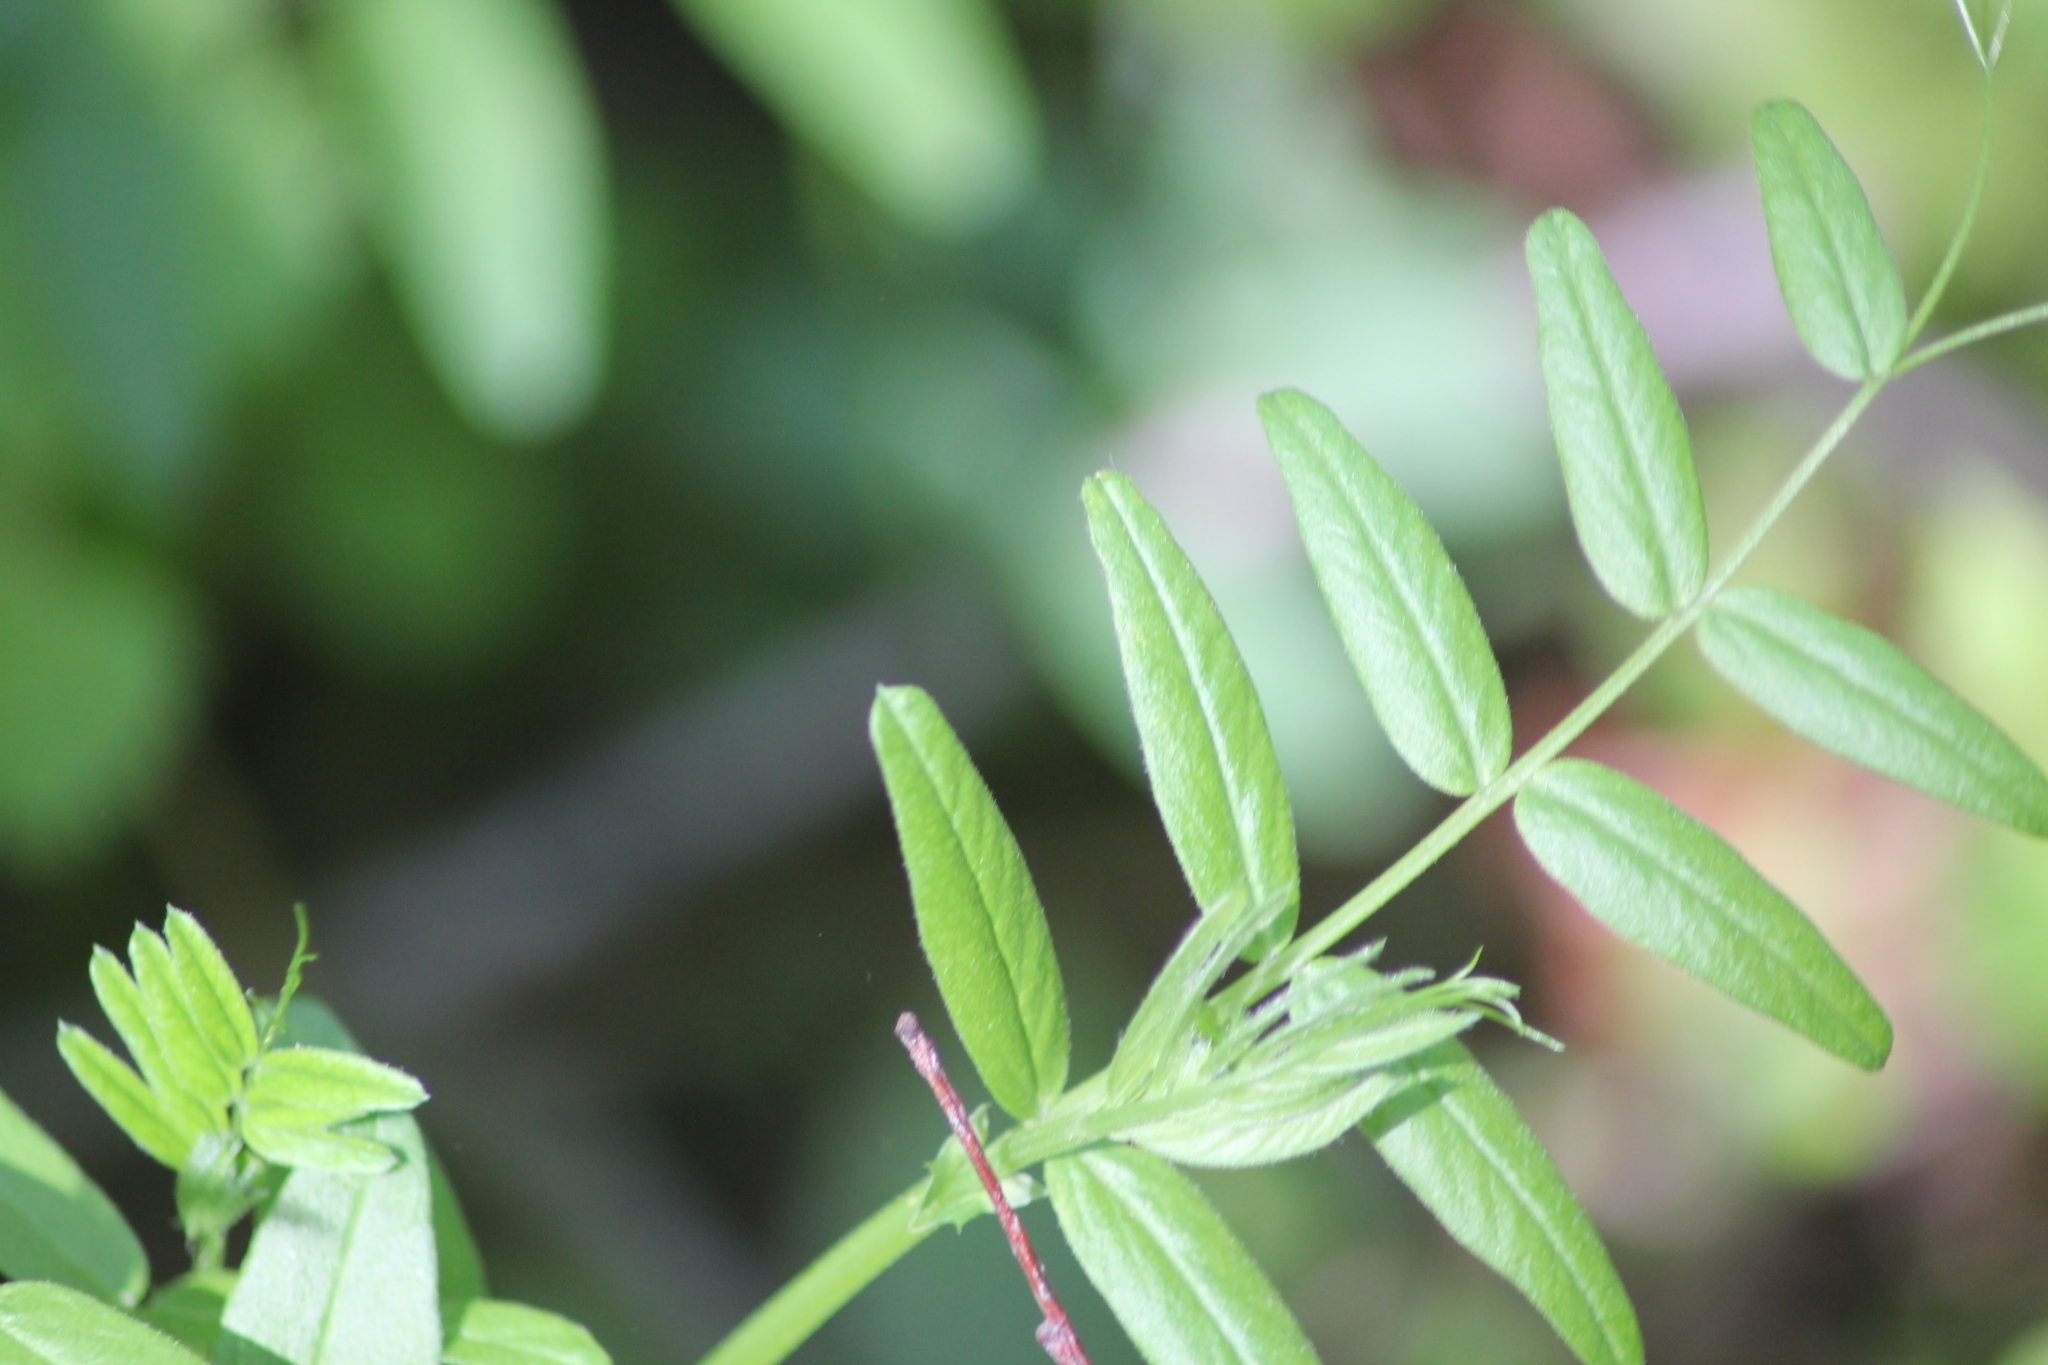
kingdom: Plantae
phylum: Tracheophyta
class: Magnoliopsida
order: Fabales
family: Fabaceae
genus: Vicia
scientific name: Vicia sepium
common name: Bush vetch
